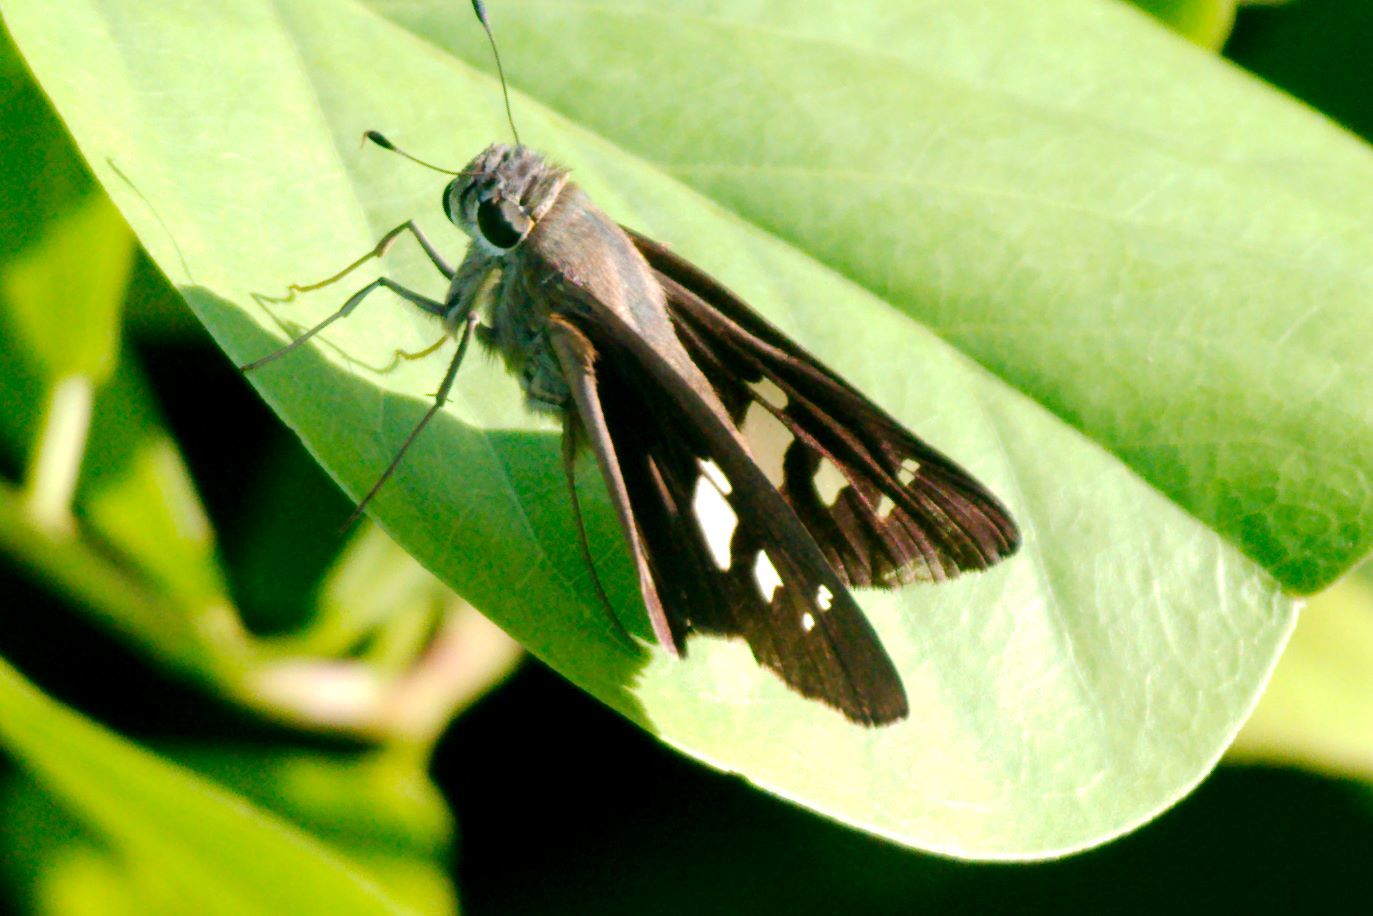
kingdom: Animalia
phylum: Arthropoda
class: Insecta
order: Lepidoptera
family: Hesperiidae
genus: Calpodes
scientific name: Calpodes ethlius
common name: Brazilian skipper
